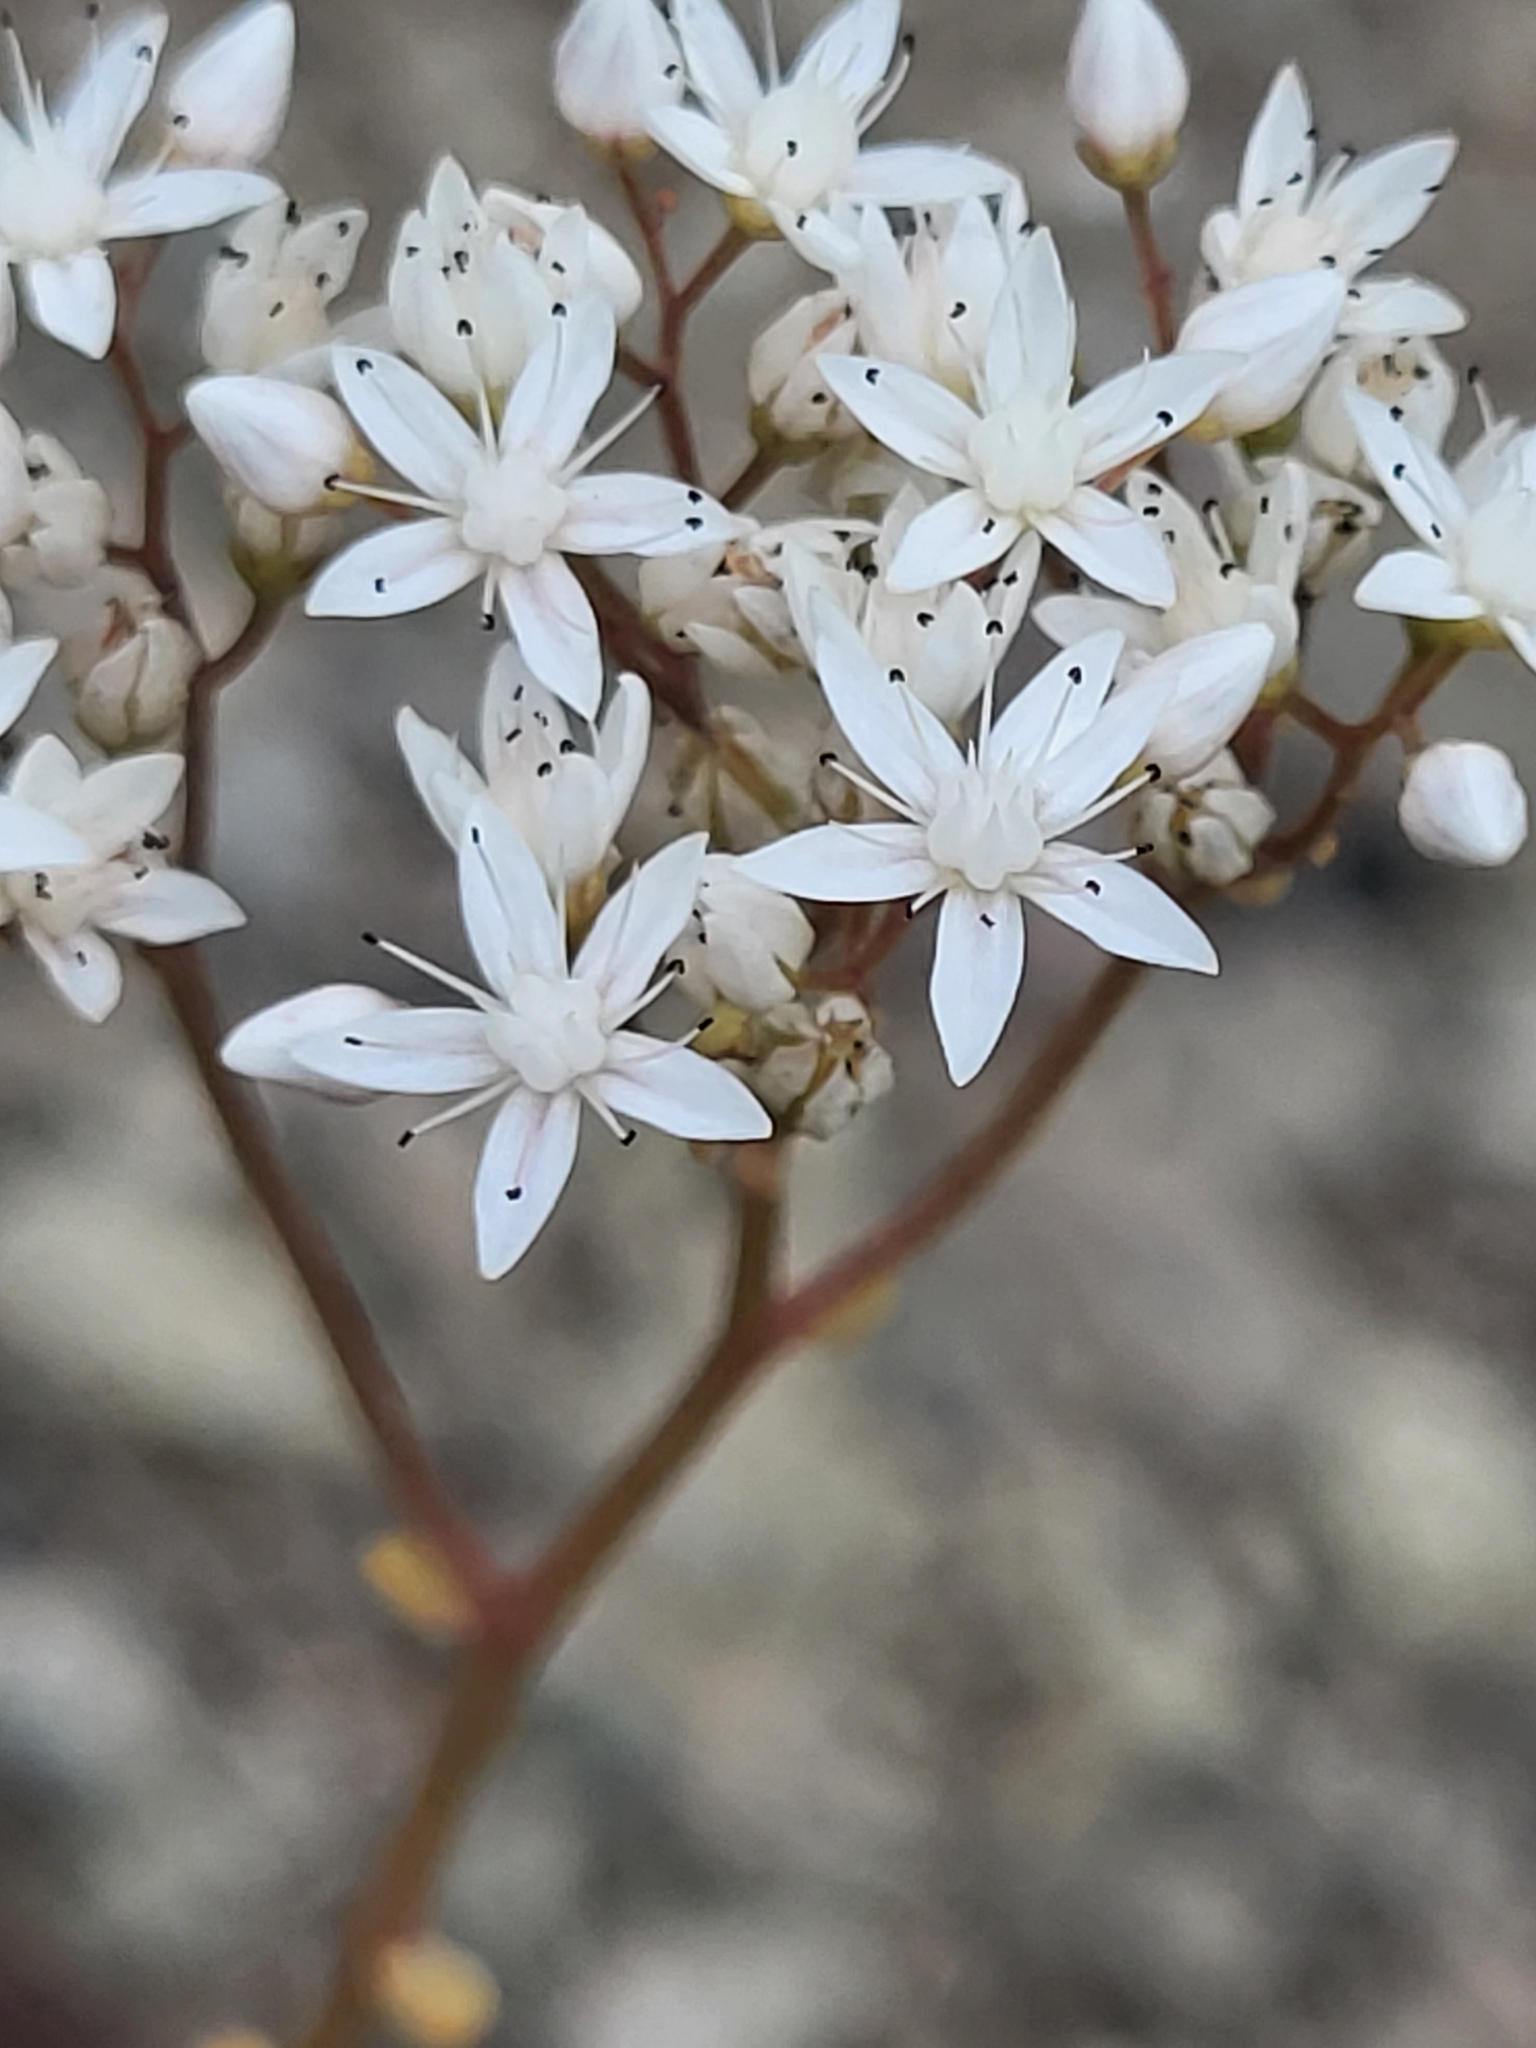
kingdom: Plantae
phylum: Tracheophyta
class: Magnoliopsida
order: Saxifragales
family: Crassulaceae
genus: Sedum
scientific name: Sedum album
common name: White stonecrop
